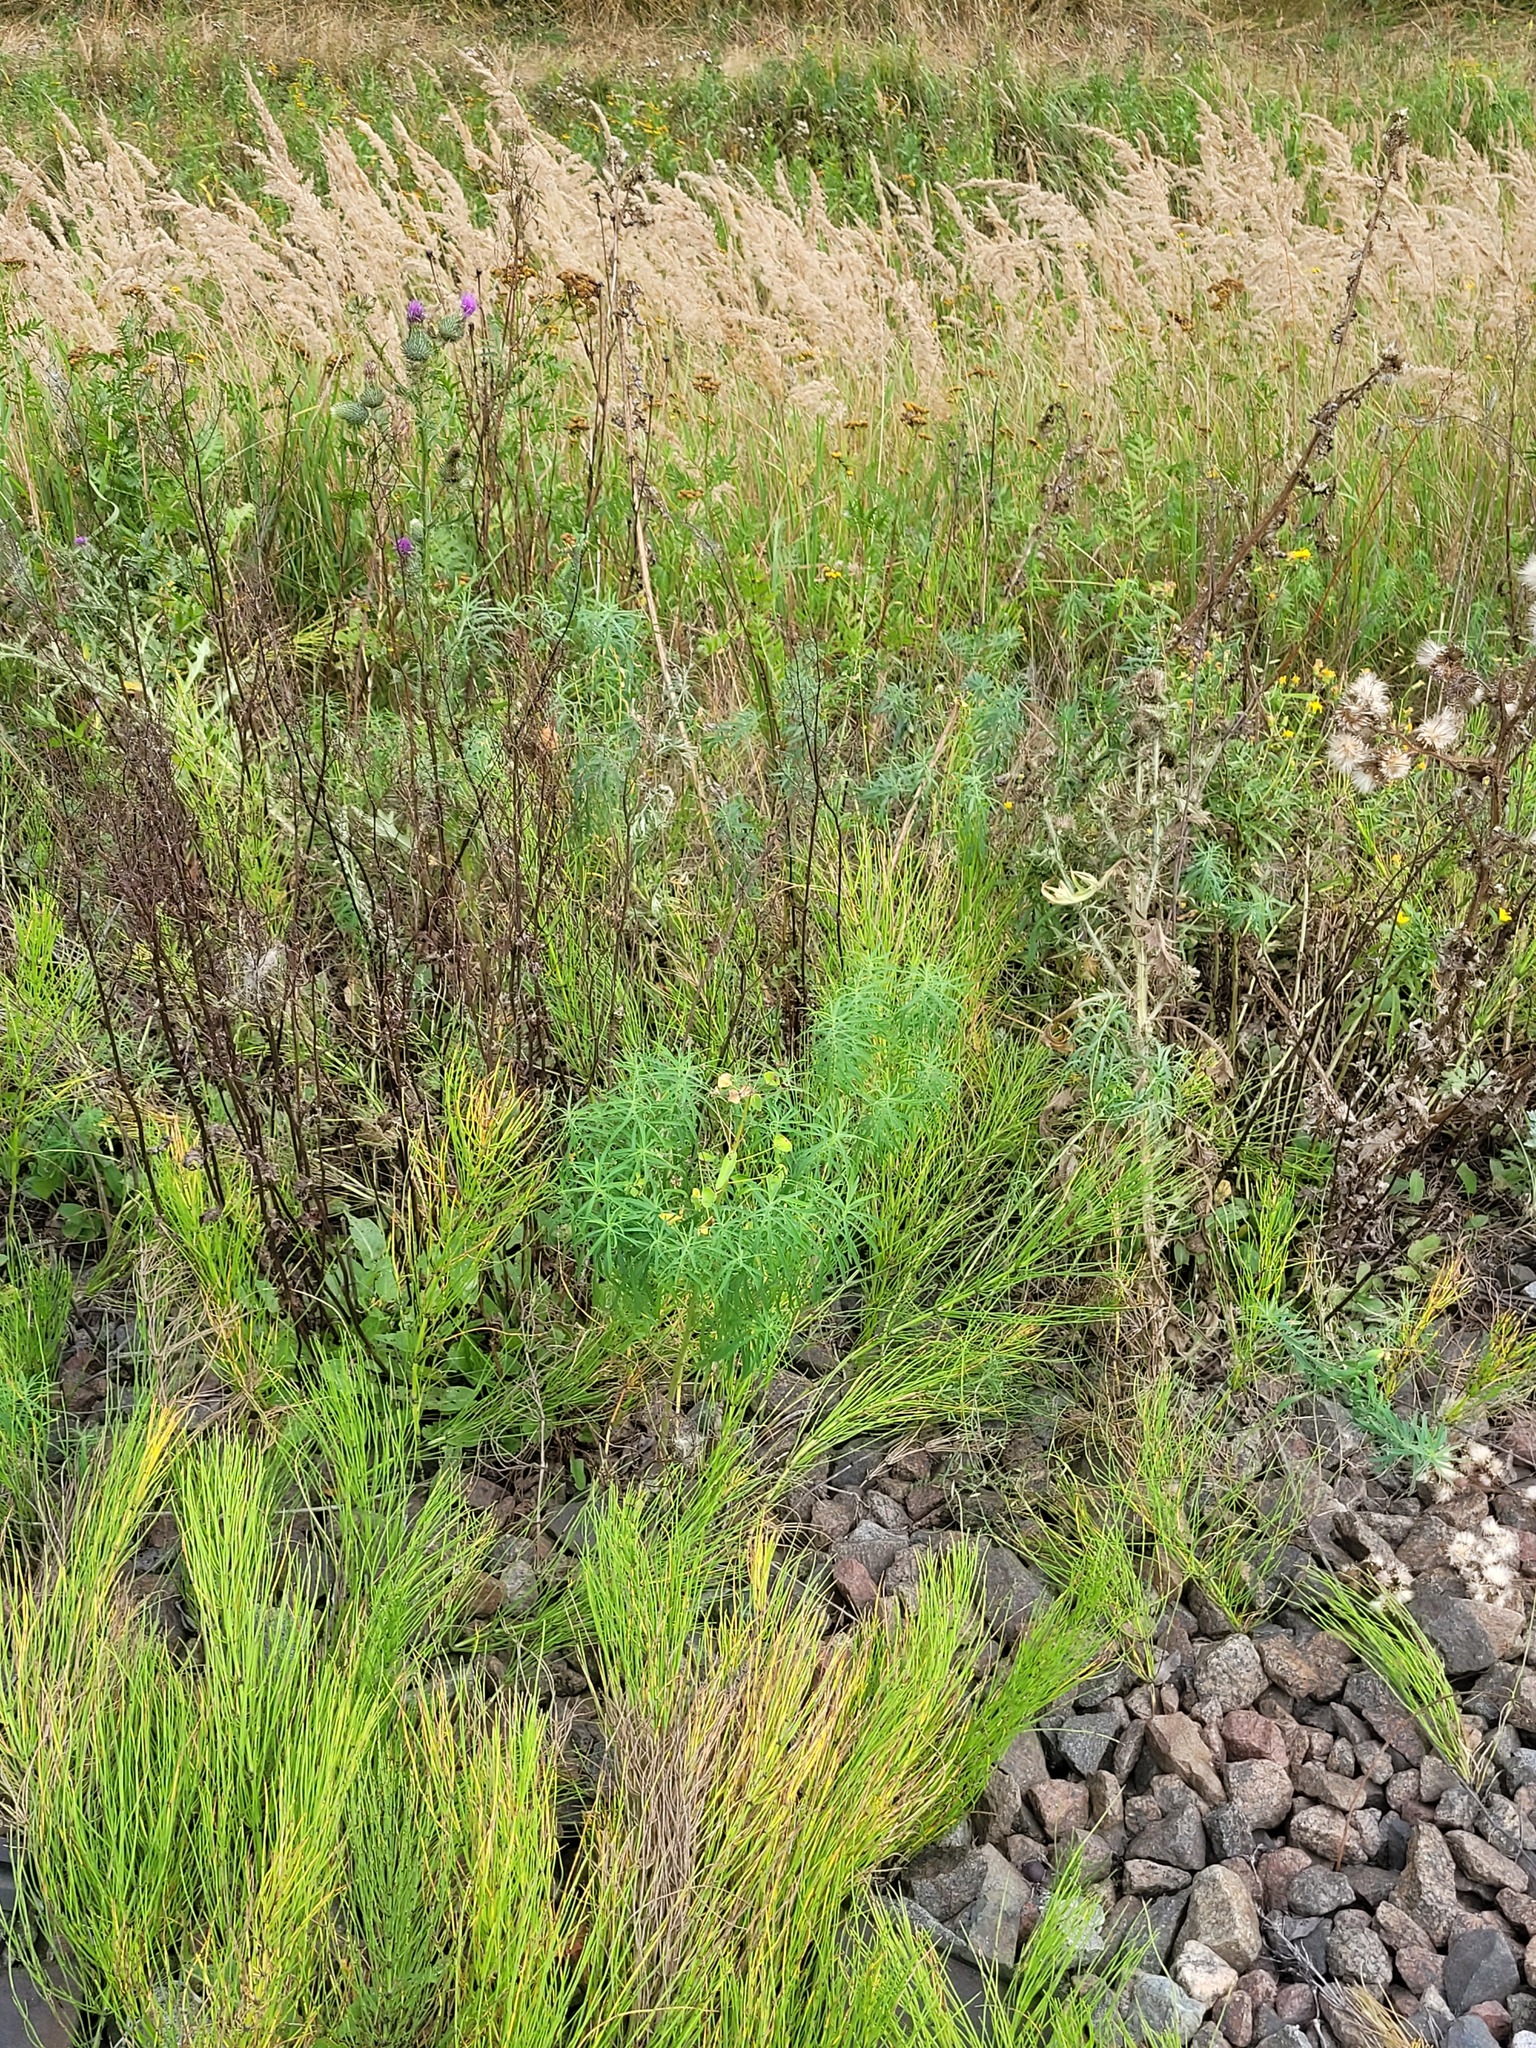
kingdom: Plantae
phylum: Tracheophyta
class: Magnoliopsida
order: Malpighiales
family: Euphorbiaceae
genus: Euphorbia
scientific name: Euphorbia virgata
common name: Leafy spurge
